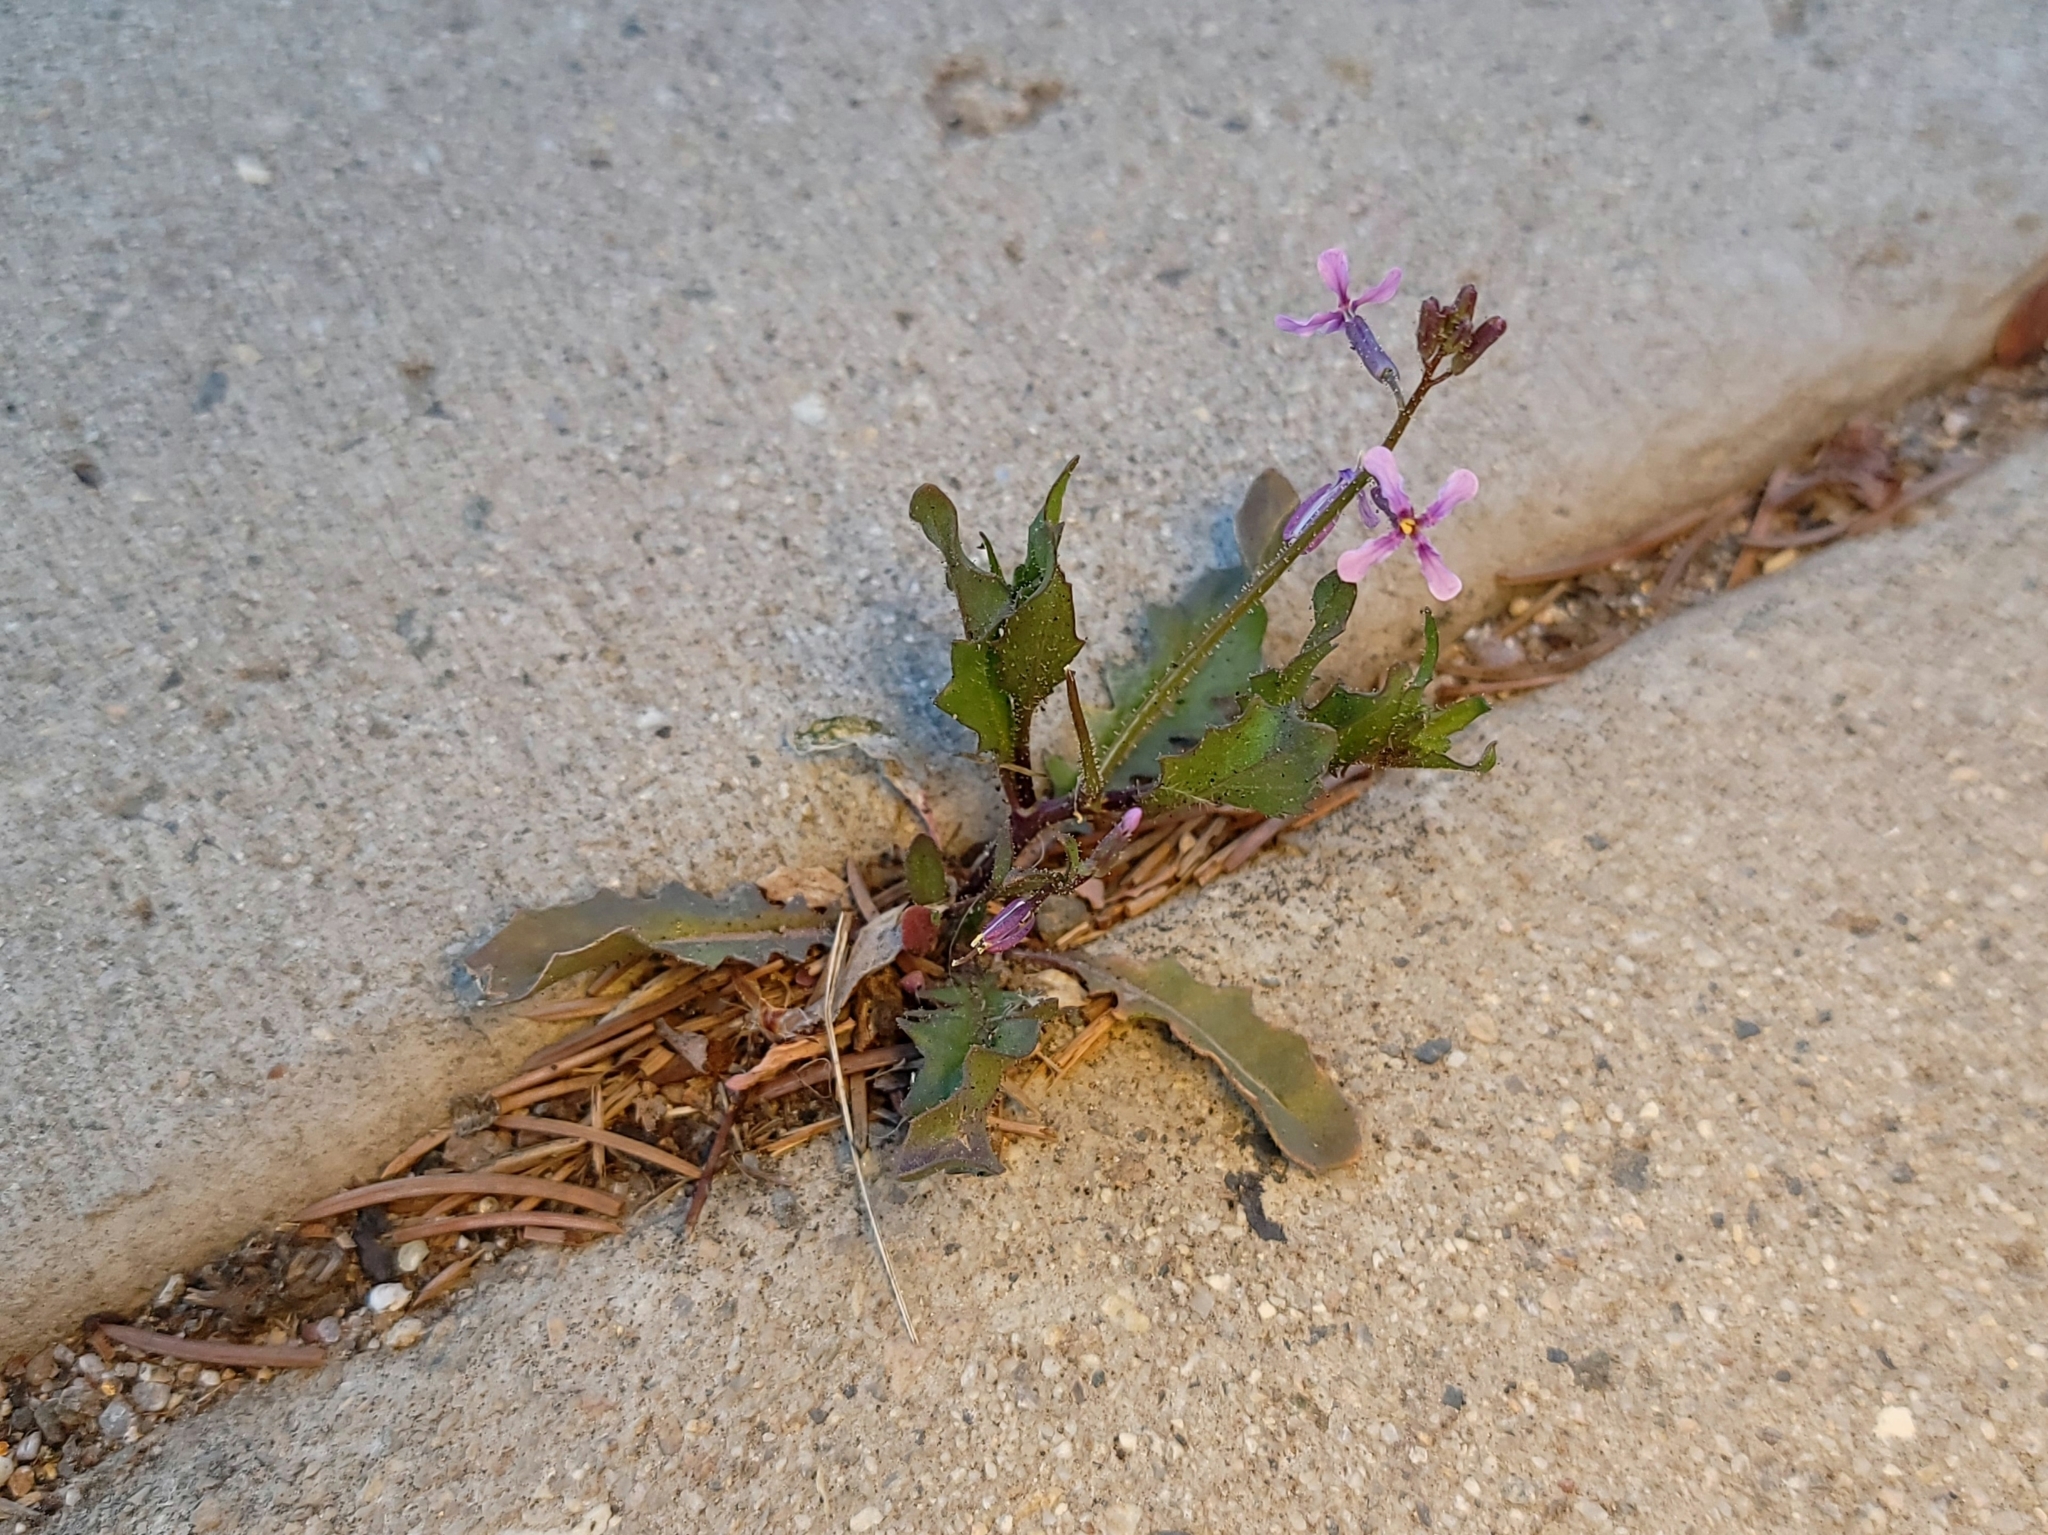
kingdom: Plantae
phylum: Tracheophyta
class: Magnoliopsida
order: Brassicales
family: Brassicaceae
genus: Chorispora
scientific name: Chorispora tenella
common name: Crossflower
